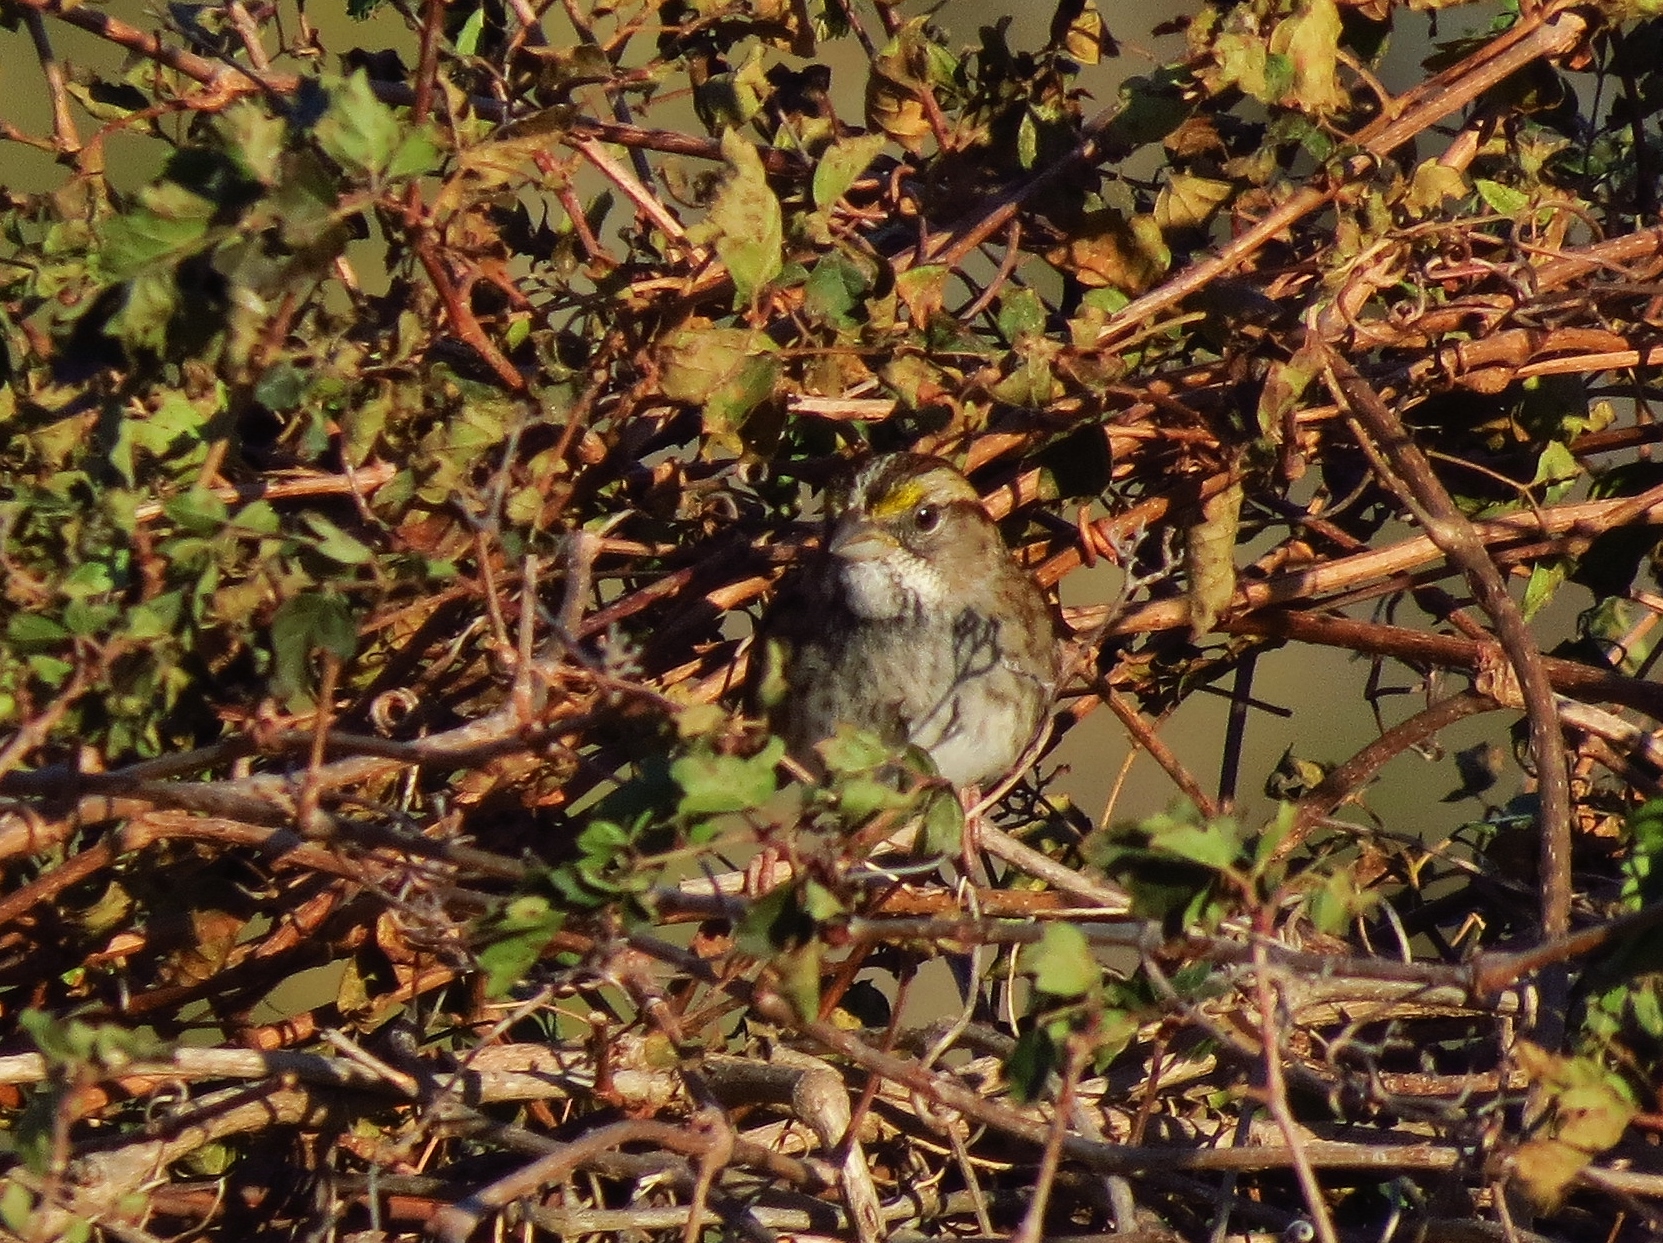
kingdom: Animalia
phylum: Chordata
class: Aves
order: Passeriformes
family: Passerellidae
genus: Zonotrichia
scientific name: Zonotrichia albicollis
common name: White-throated sparrow
